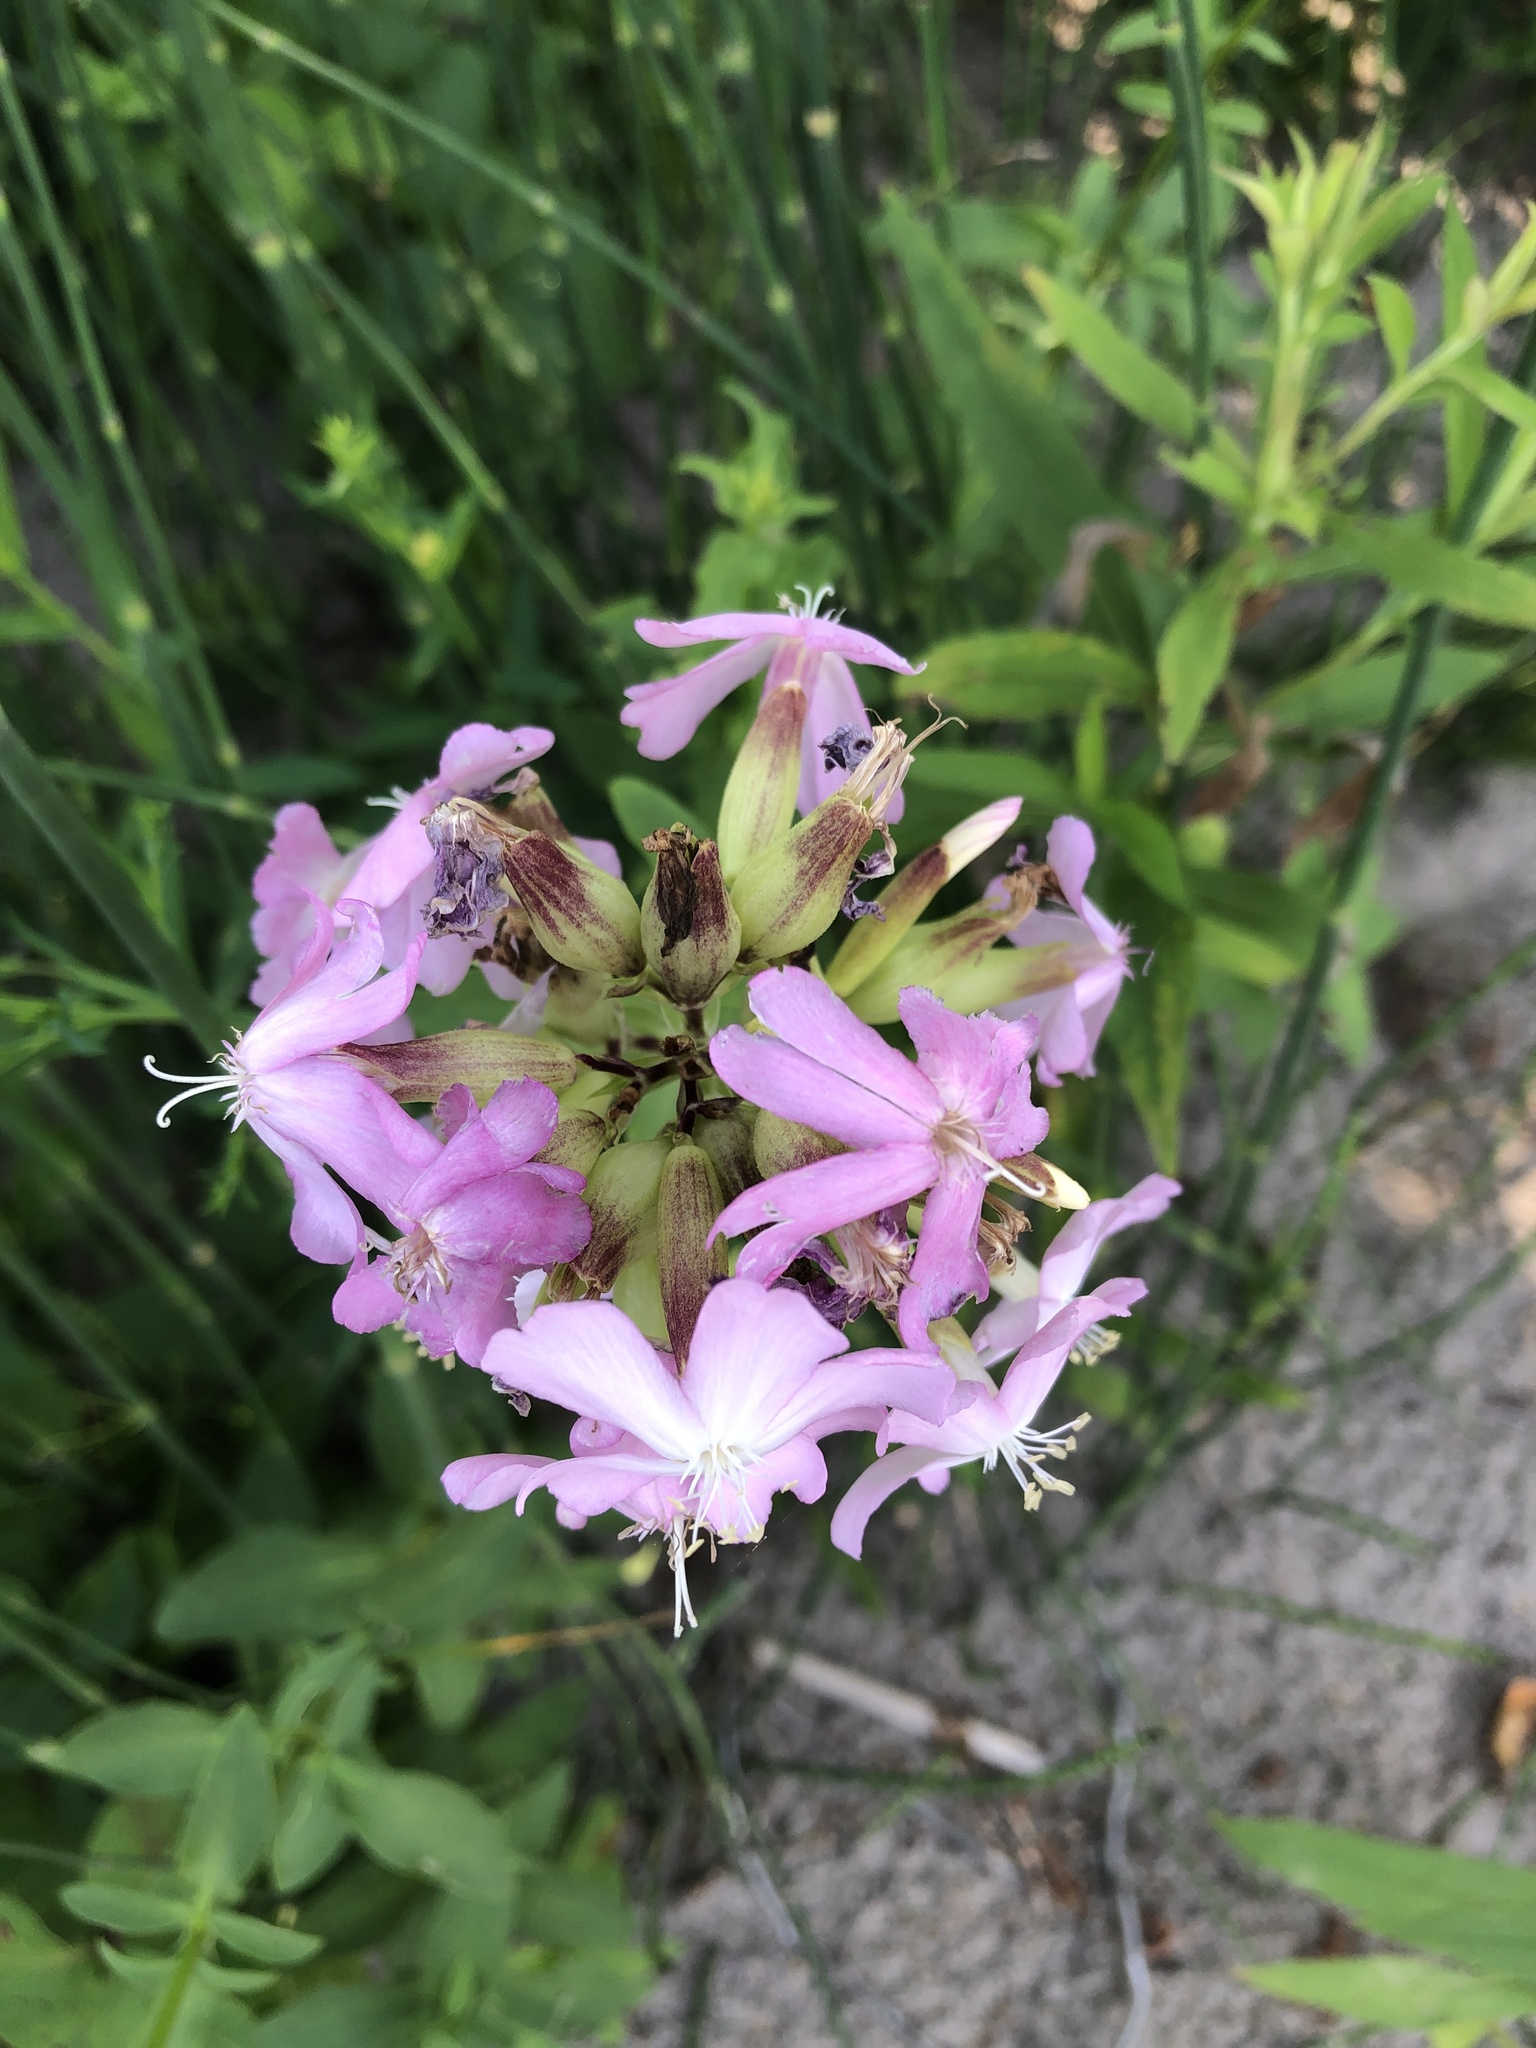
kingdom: Plantae
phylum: Tracheophyta
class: Magnoliopsida
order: Caryophyllales
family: Caryophyllaceae
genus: Saponaria
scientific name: Saponaria officinalis
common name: Soapwort
